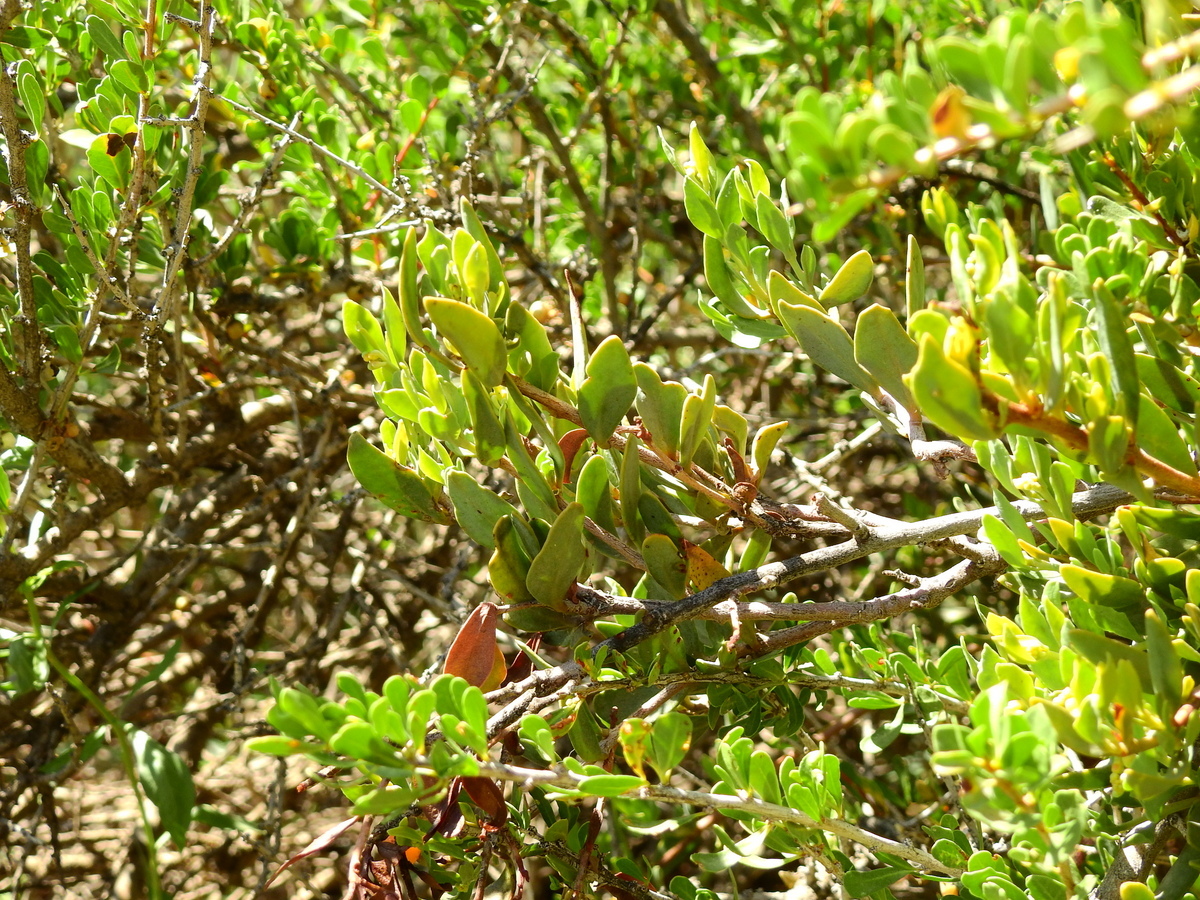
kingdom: Plantae
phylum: Tracheophyta
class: Magnoliopsida
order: Santalales
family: Loranthaceae
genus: Tristerix
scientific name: Tristerix verticillatus
